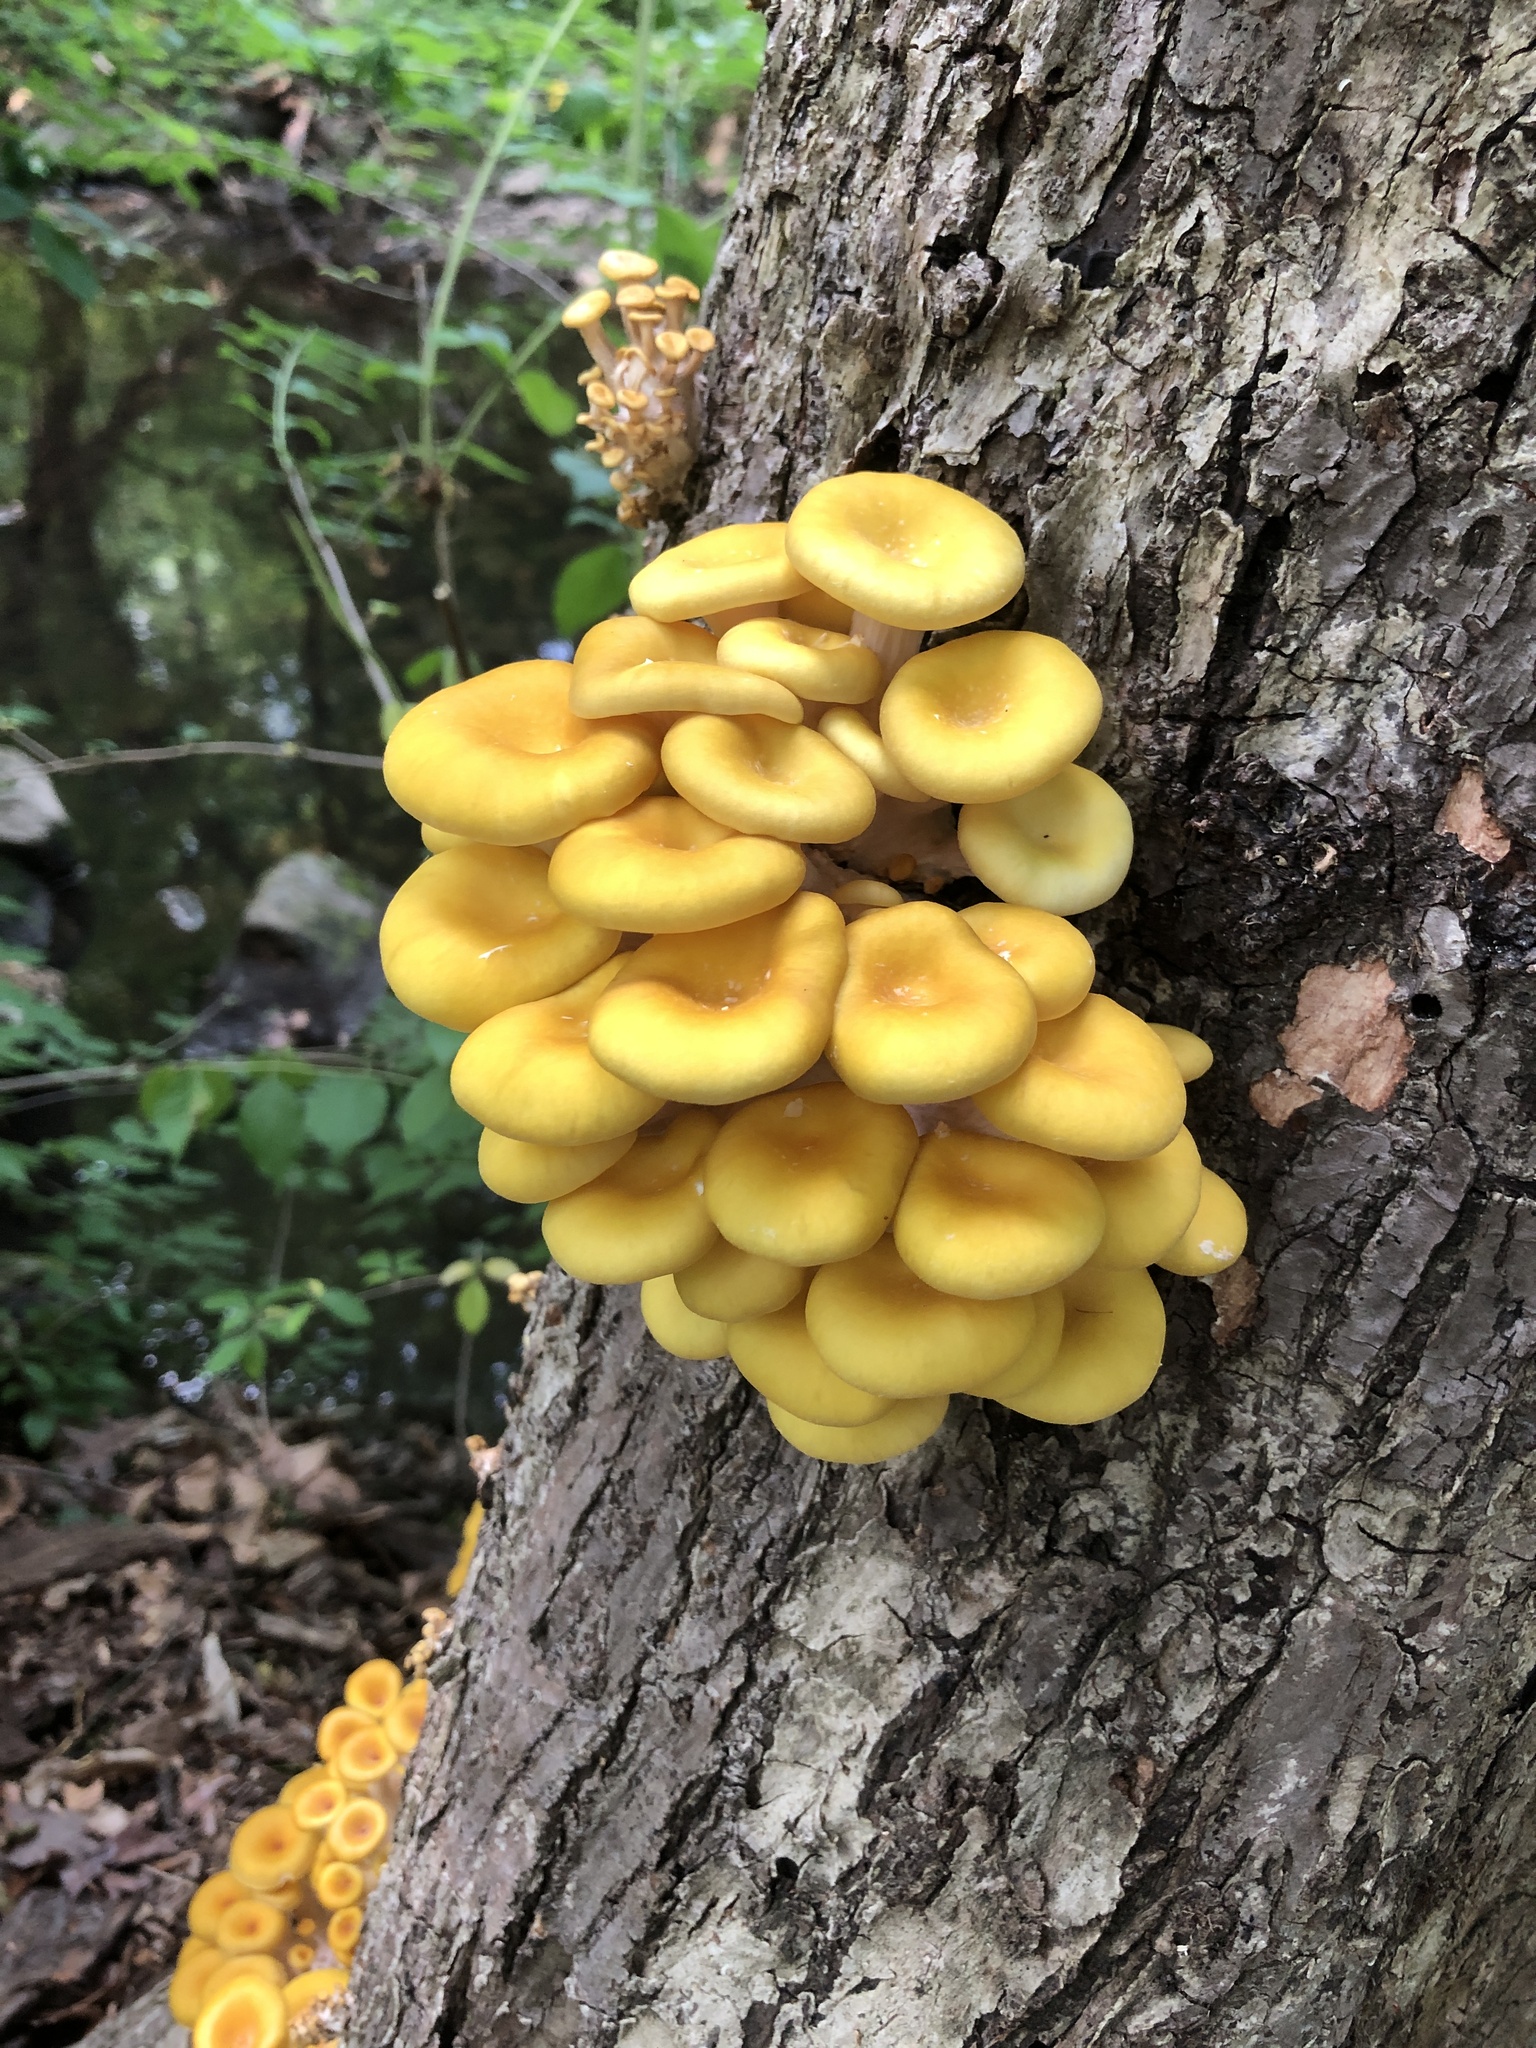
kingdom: Fungi
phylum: Basidiomycota
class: Agaricomycetes
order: Agaricales
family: Pleurotaceae
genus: Pleurotus
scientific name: Pleurotus citrinopileatus
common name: Golden oyster mushroom
